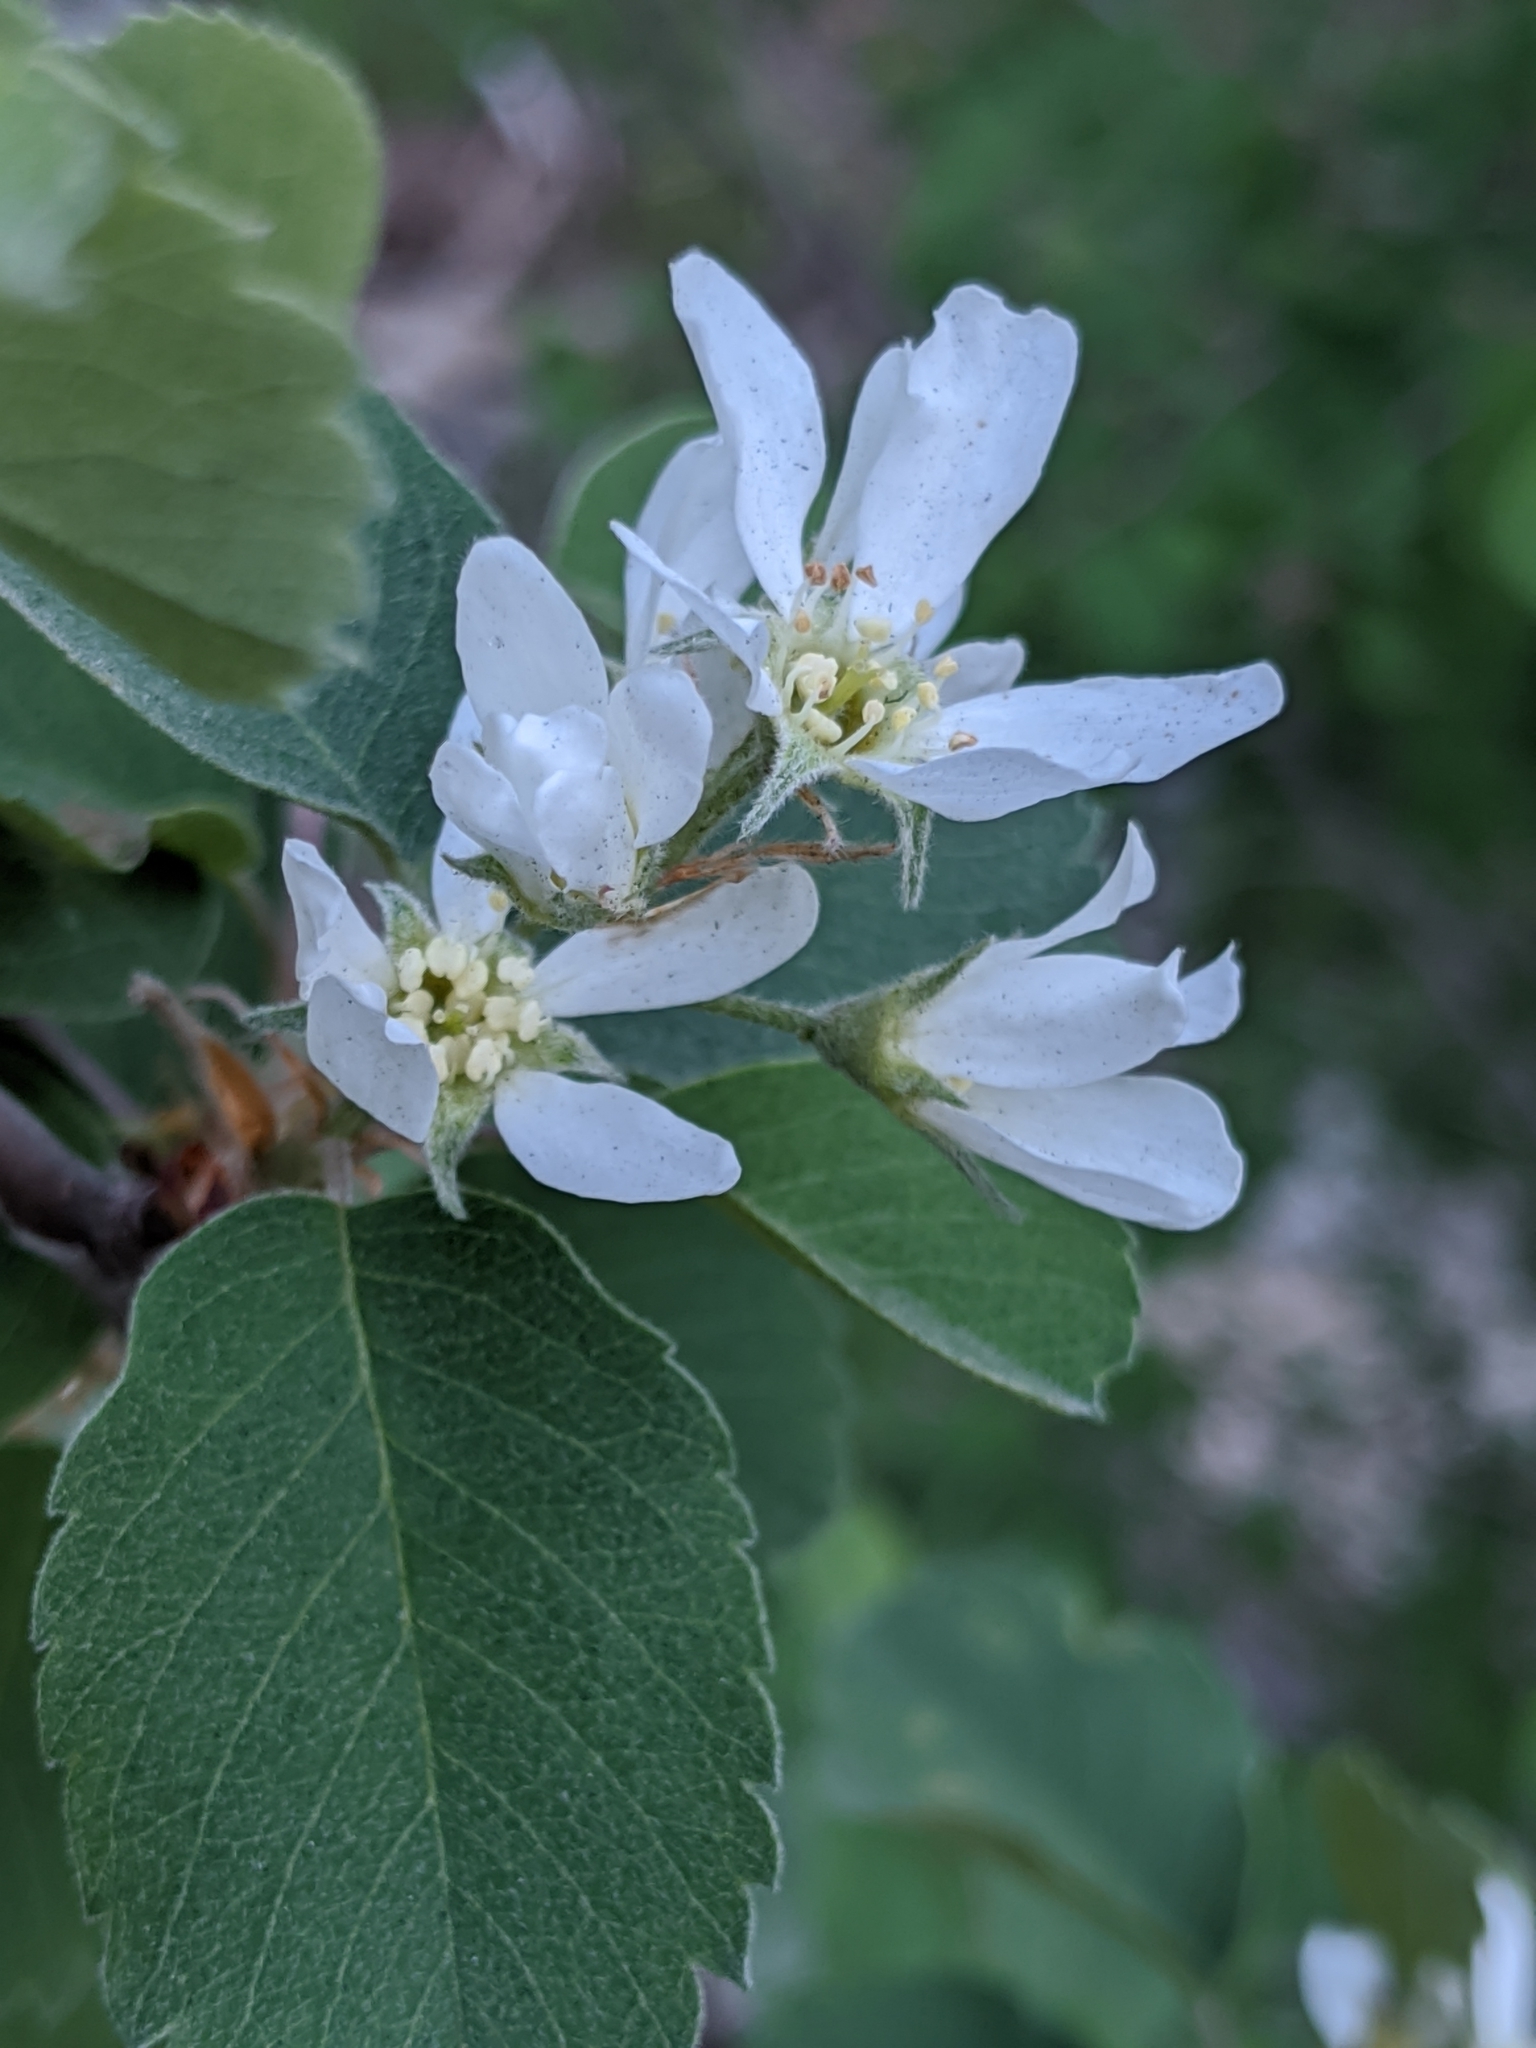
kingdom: Plantae
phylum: Tracheophyta
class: Magnoliopsida
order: Rosales
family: Rosaceae
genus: Amelanchier
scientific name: Amelanchier utahensis
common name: Utah serviceberry
